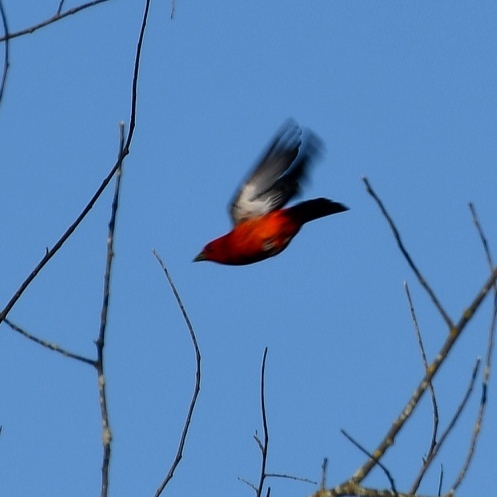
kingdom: Animalia
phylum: Chordata
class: Aves
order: Passeriformes
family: Cardinalidae
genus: Piranga
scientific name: Piranga olivacea
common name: Scarlet tanager
